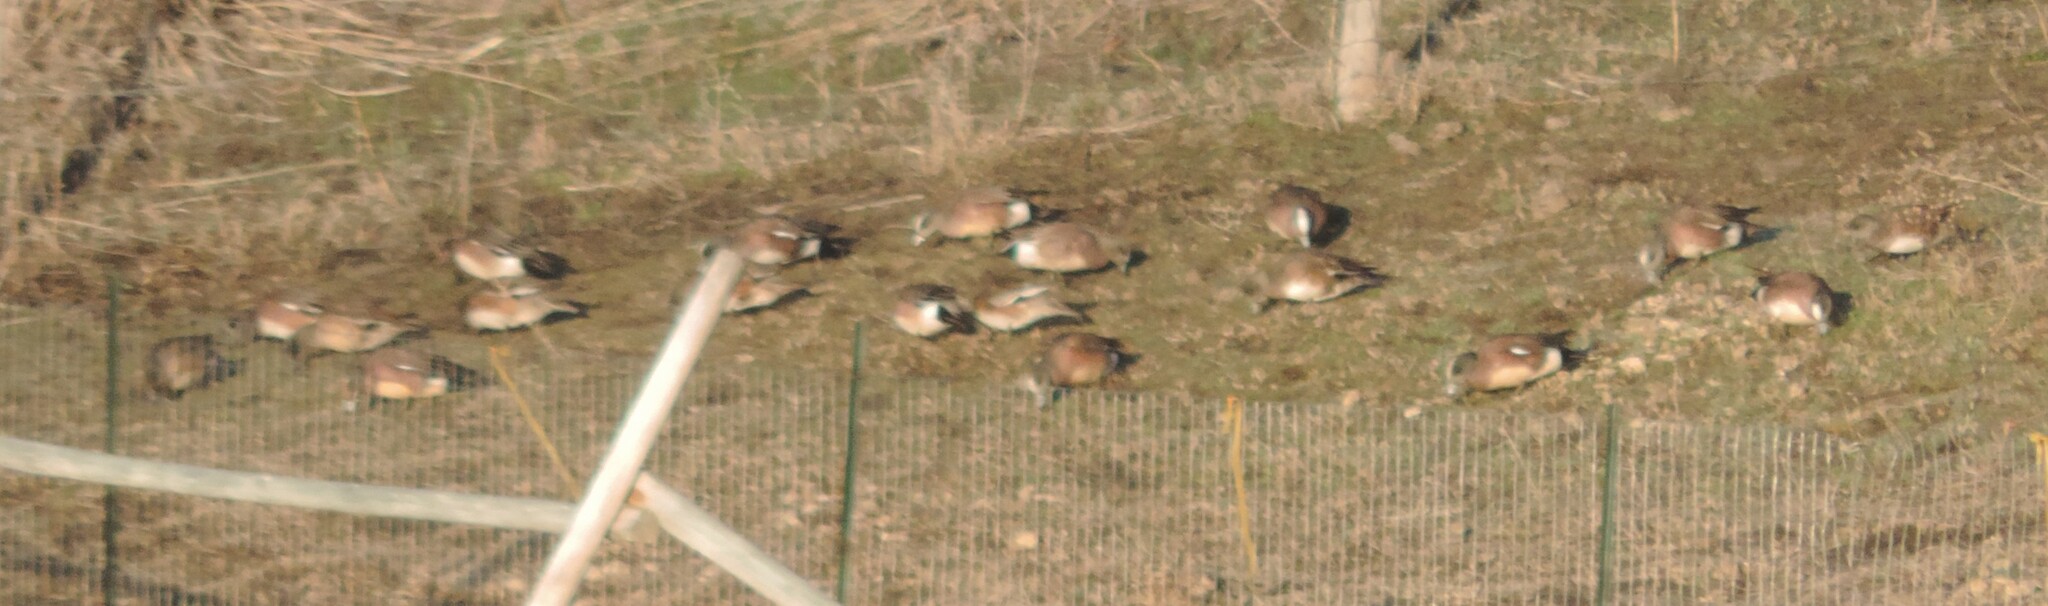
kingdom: Animalia
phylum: Chordata
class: Aves
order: Anseriformes
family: Anatidae
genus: Mareca
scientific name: Mareca americana
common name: American wigeon
